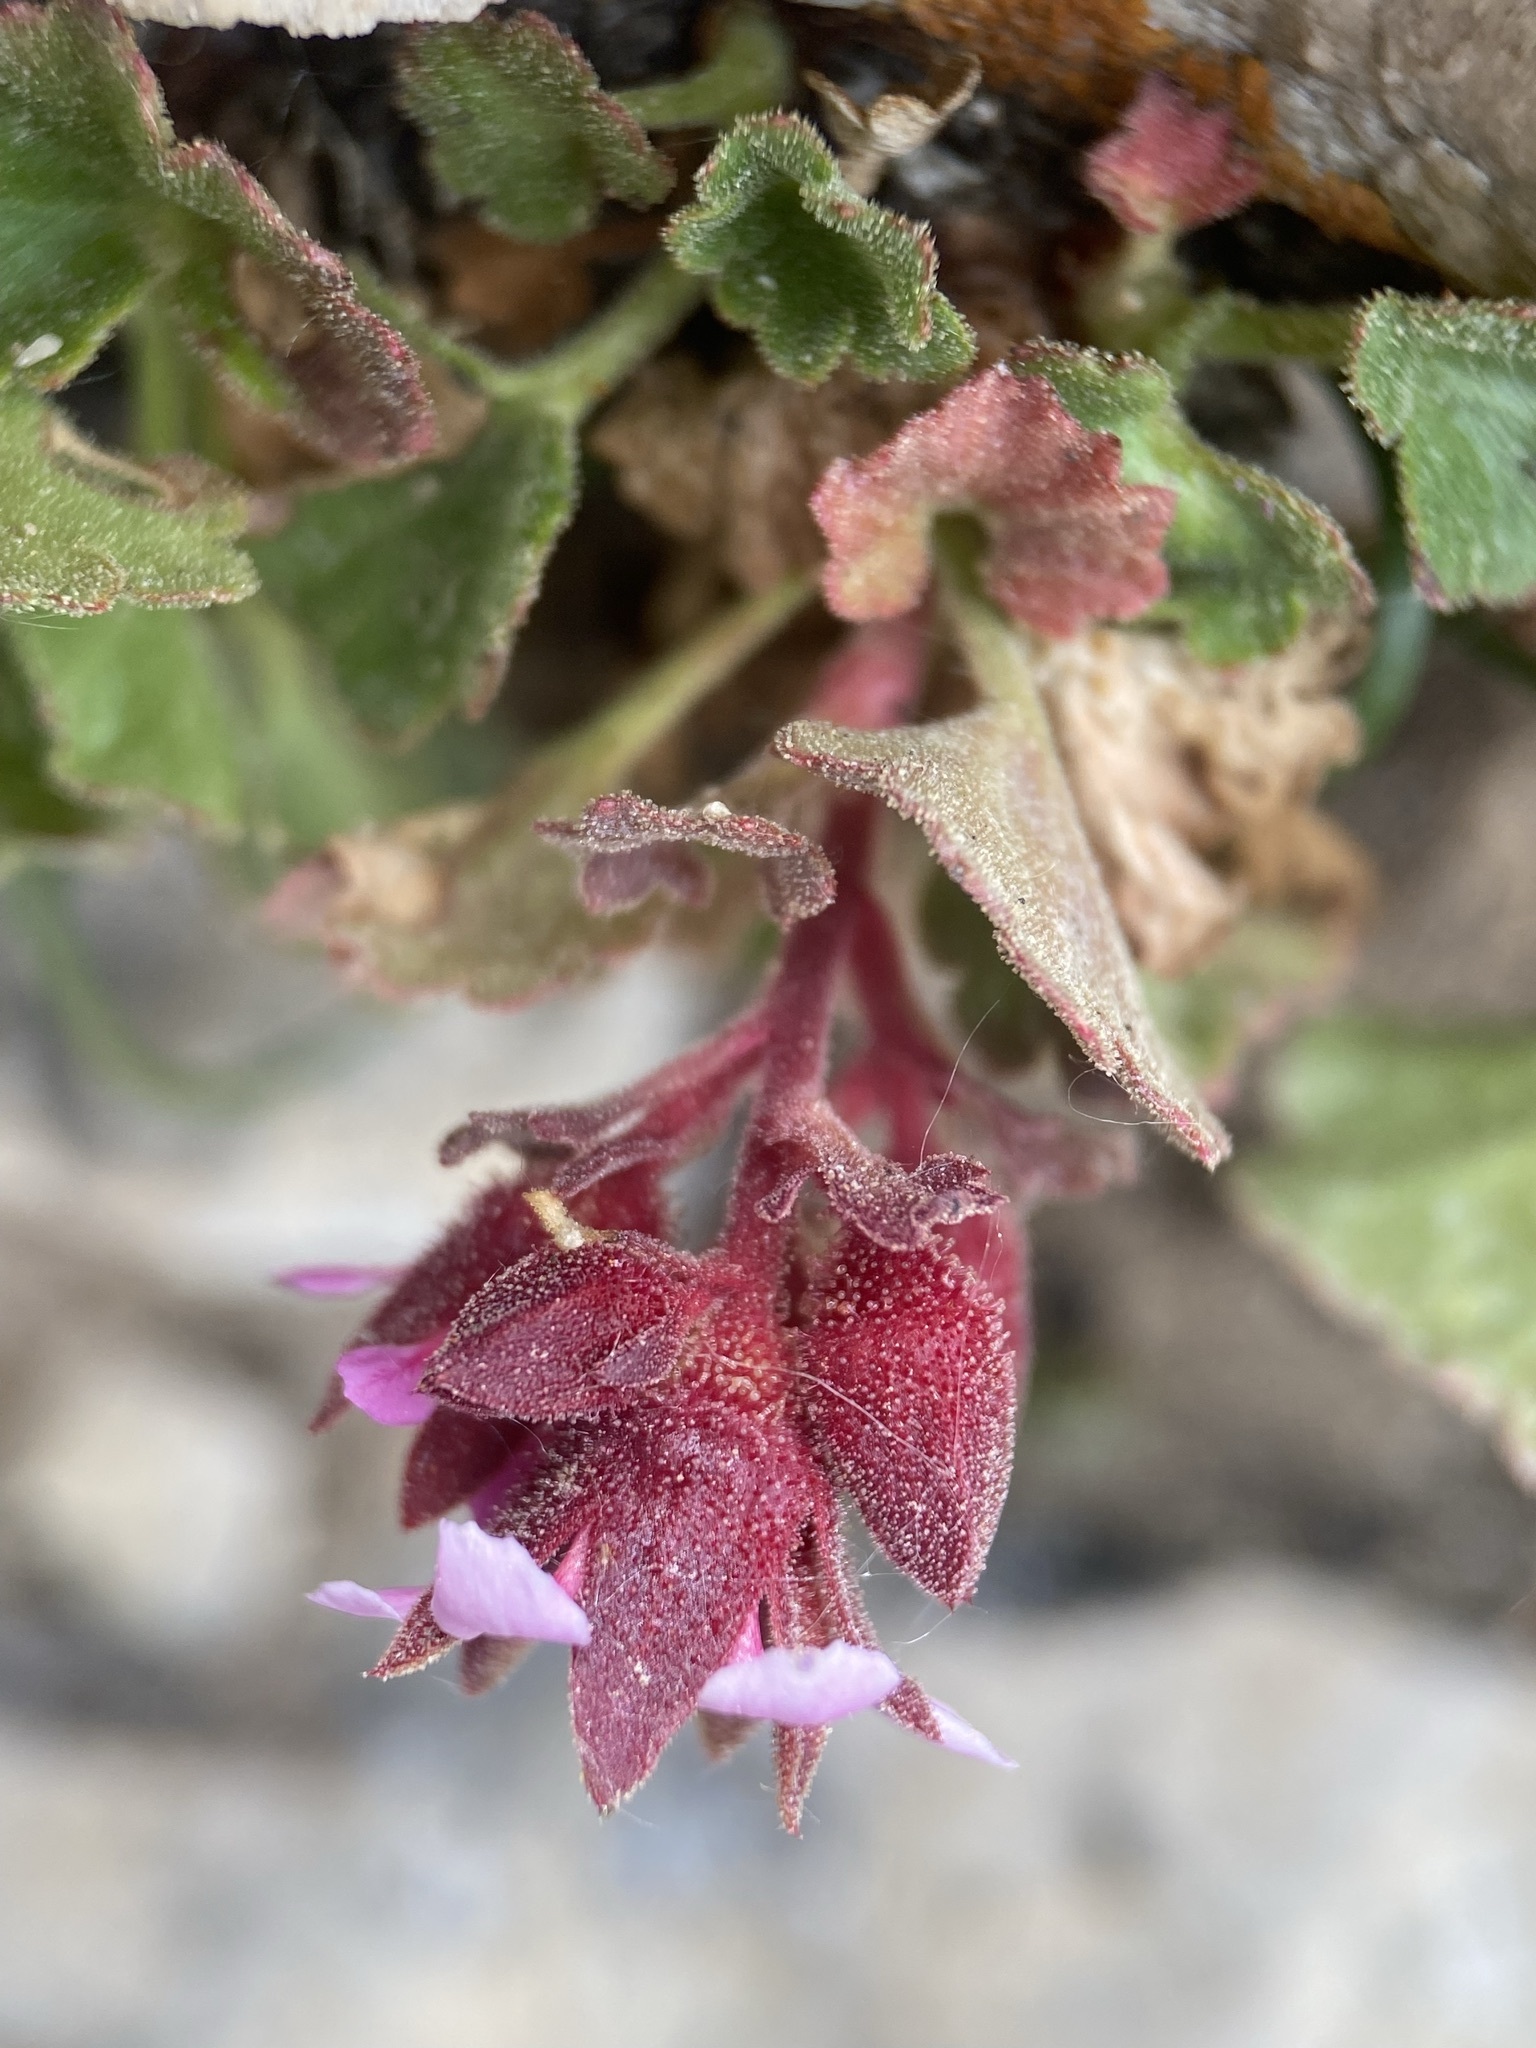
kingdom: Plantae
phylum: Tracheophyta
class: Magnoliopsida
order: Saxifragales
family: Saxifragaceae
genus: Telesonix
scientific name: Telesonix heucheriformis
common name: Alumroot brookfoam
